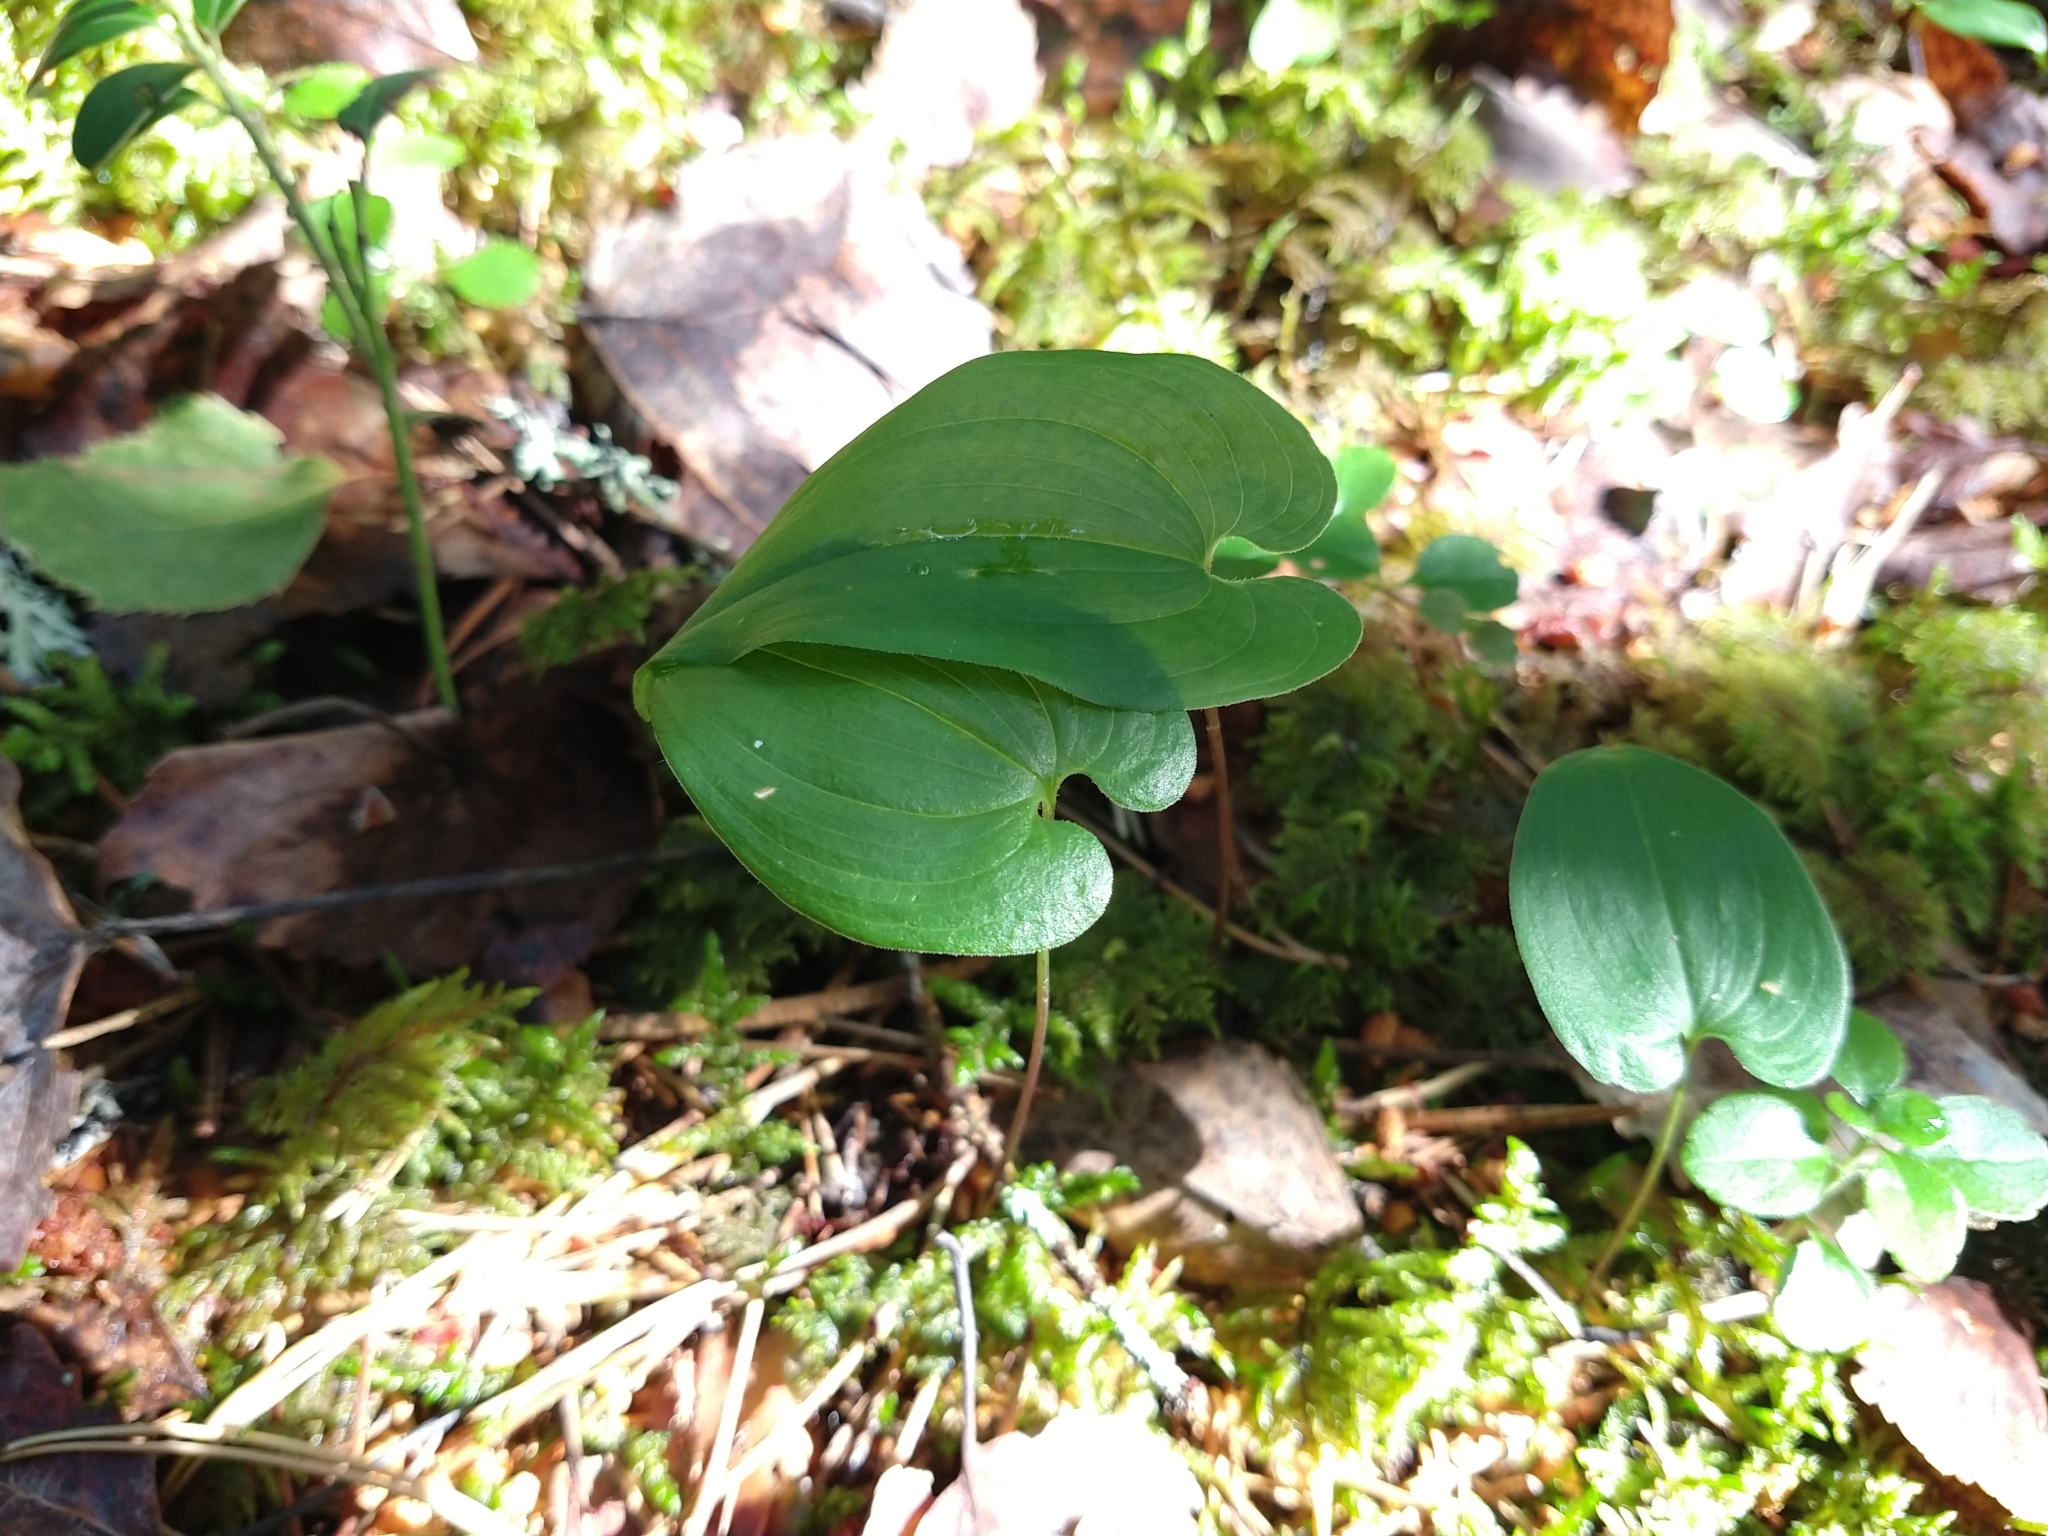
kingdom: Plantae
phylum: Tracheophyta
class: Liliopsida
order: Asparagales
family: Asparagaceae
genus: Maianthemum
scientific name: Maianthemum bifolium
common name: May lily
